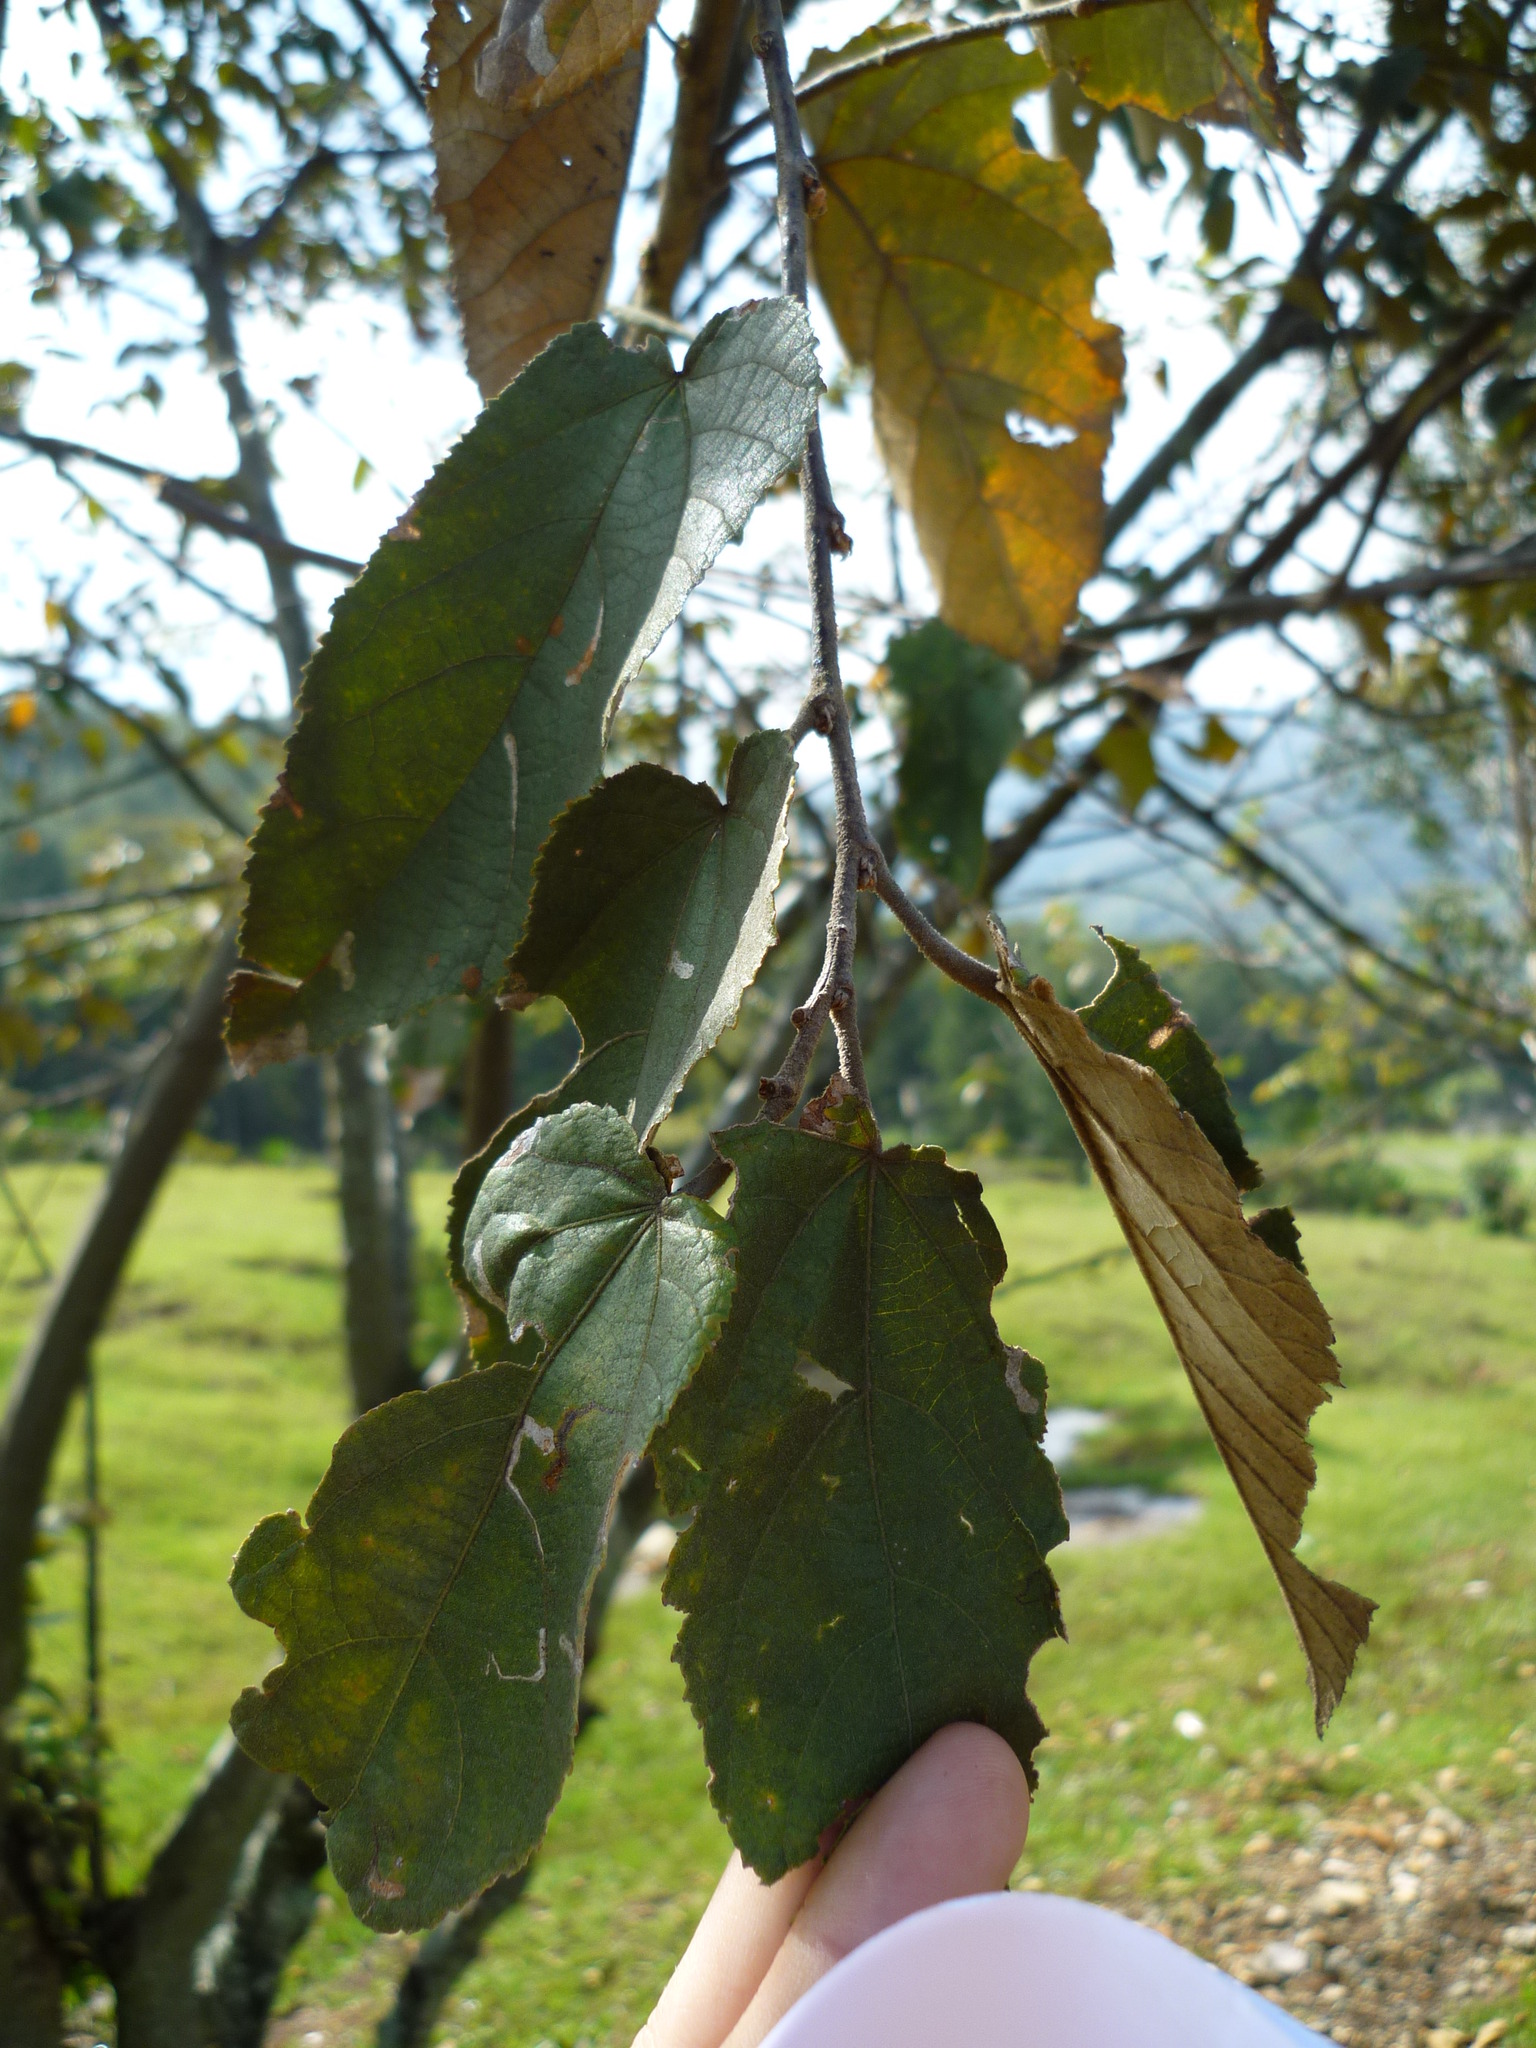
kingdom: Plantae
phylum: Tracheophyta
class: Magnoliopsida
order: Malvales
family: Malvaceae
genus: Guazuma
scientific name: Guazuma ulmifolia
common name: Bastard-cedar
